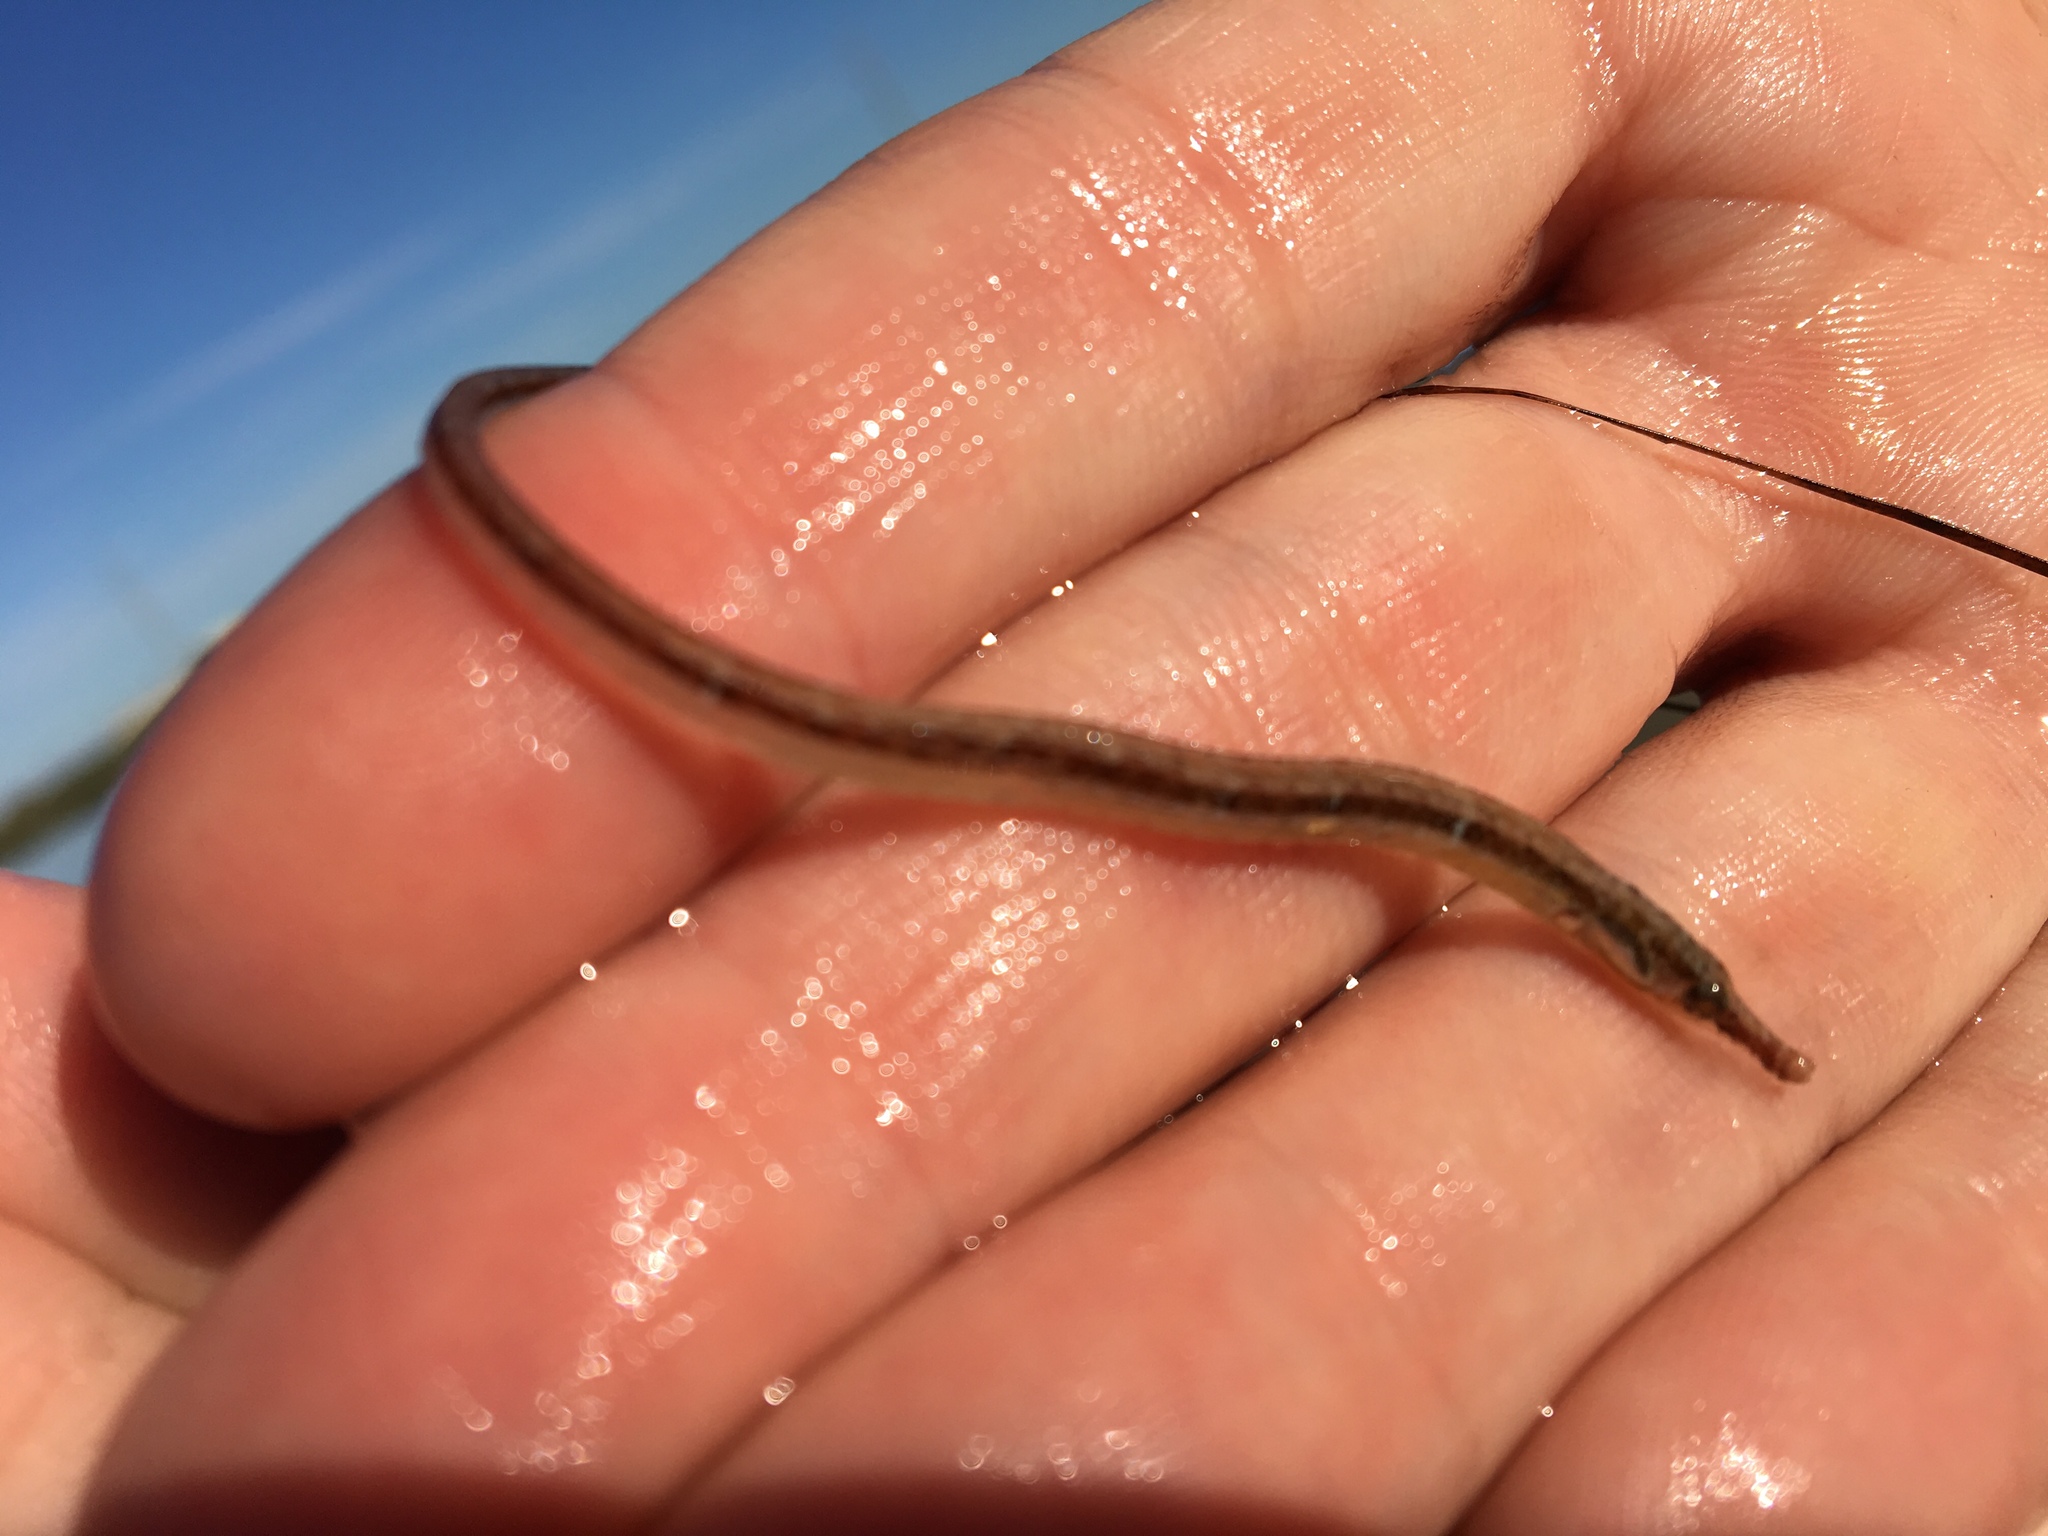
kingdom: Animalia
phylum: Chordata
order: Syngnathiformes
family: Syngnathidae
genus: Syngnathus
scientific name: Syngnathus scovelli
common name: American gulf pipefish
